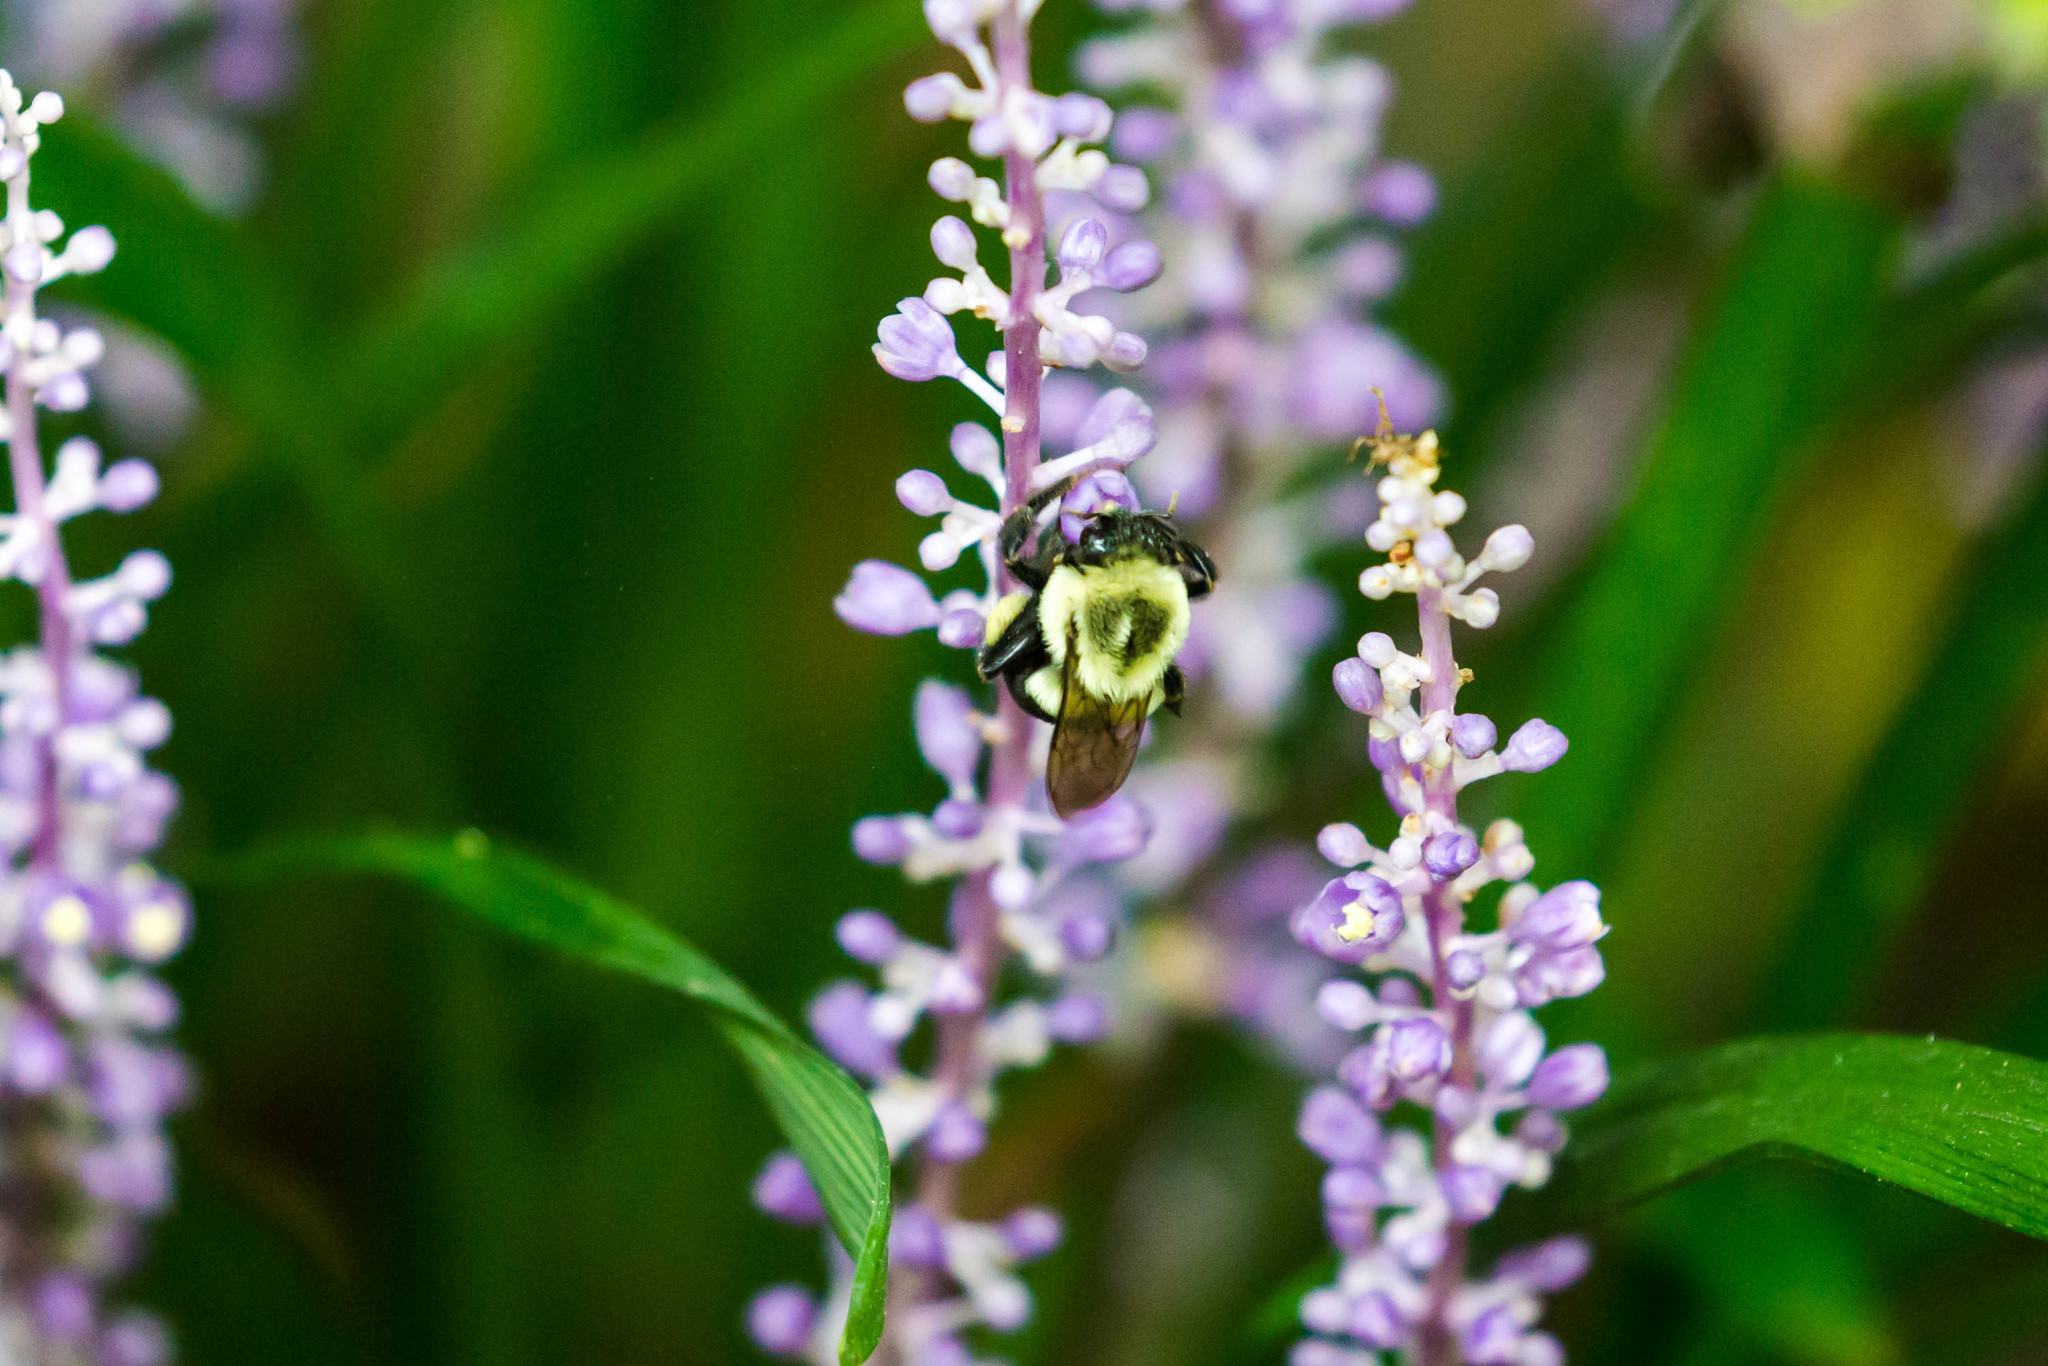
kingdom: Animalia
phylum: Arthropoda
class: Insecta
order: Hymenoptera
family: Apidae
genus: Bombus
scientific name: Bombus impatiens
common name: Common eastern bumble bee
